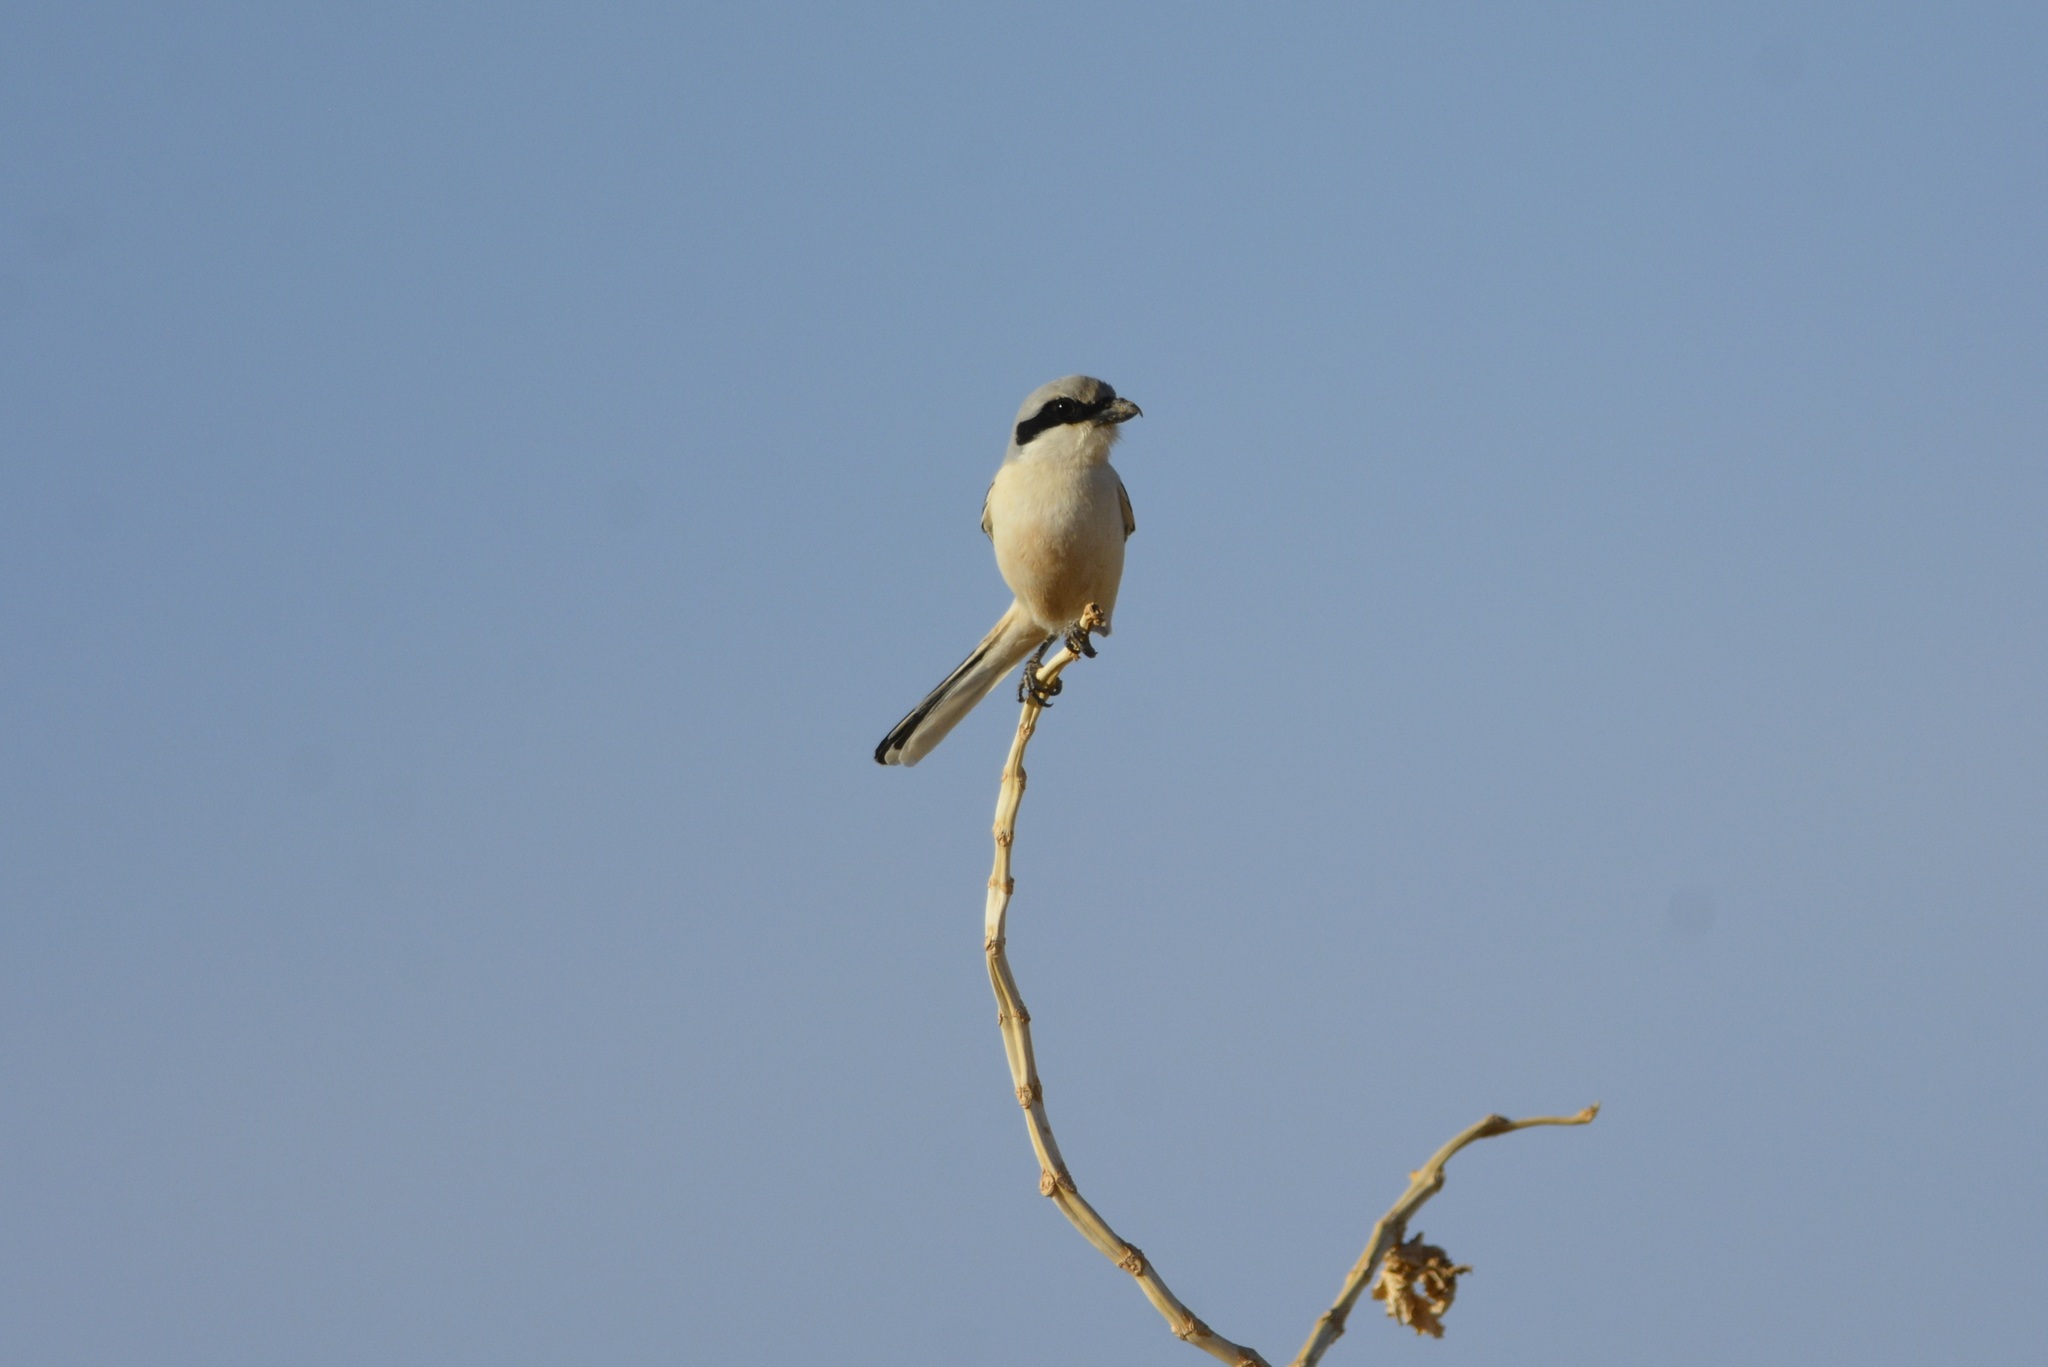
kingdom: Animalia
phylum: Chordata
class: Aves
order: Passeriformes
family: Laniidae
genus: Lanius
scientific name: Lanius excubitor
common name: Great grey shrike
